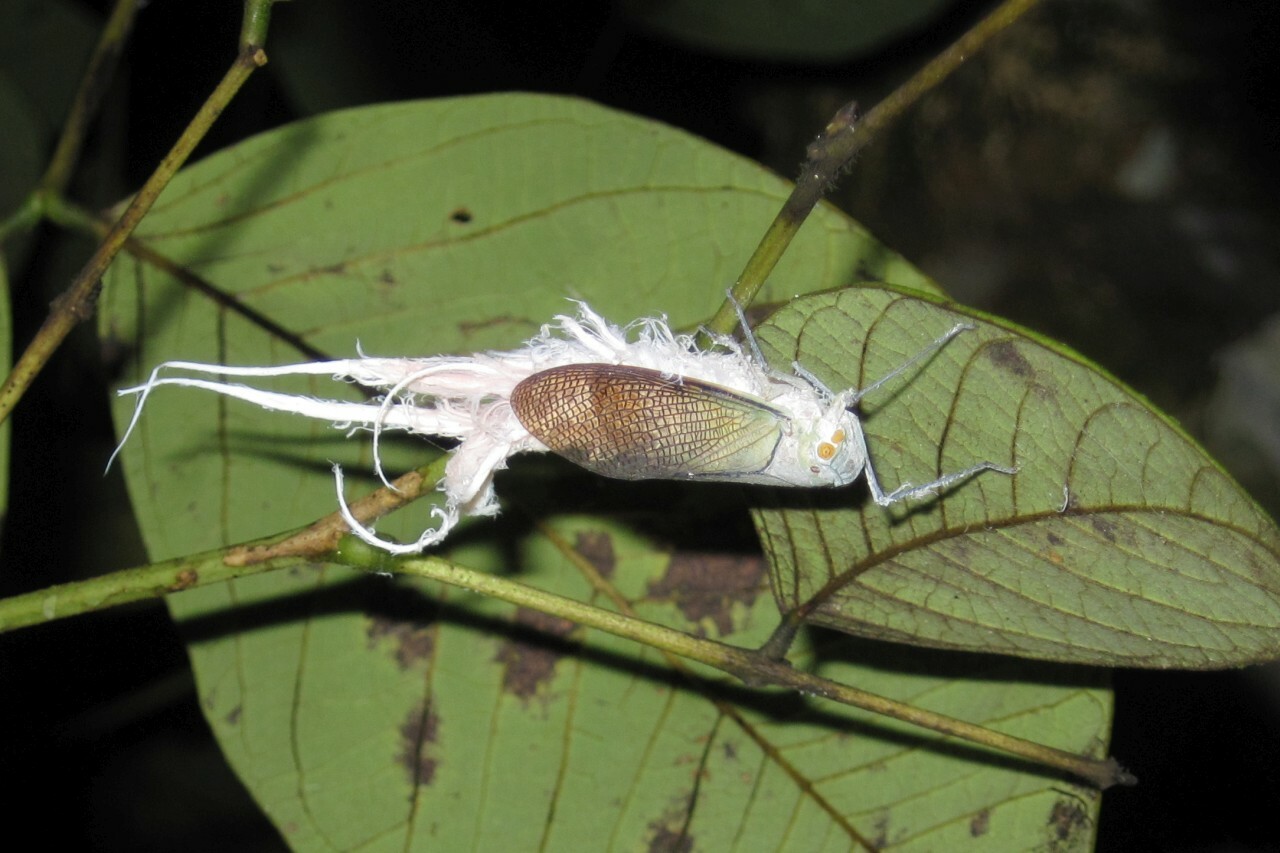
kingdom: Animalia
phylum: Arthropoda
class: Insecta
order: Hemiptera
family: Fulgoridae
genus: Pterodictya
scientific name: Pterodictya reticularis
